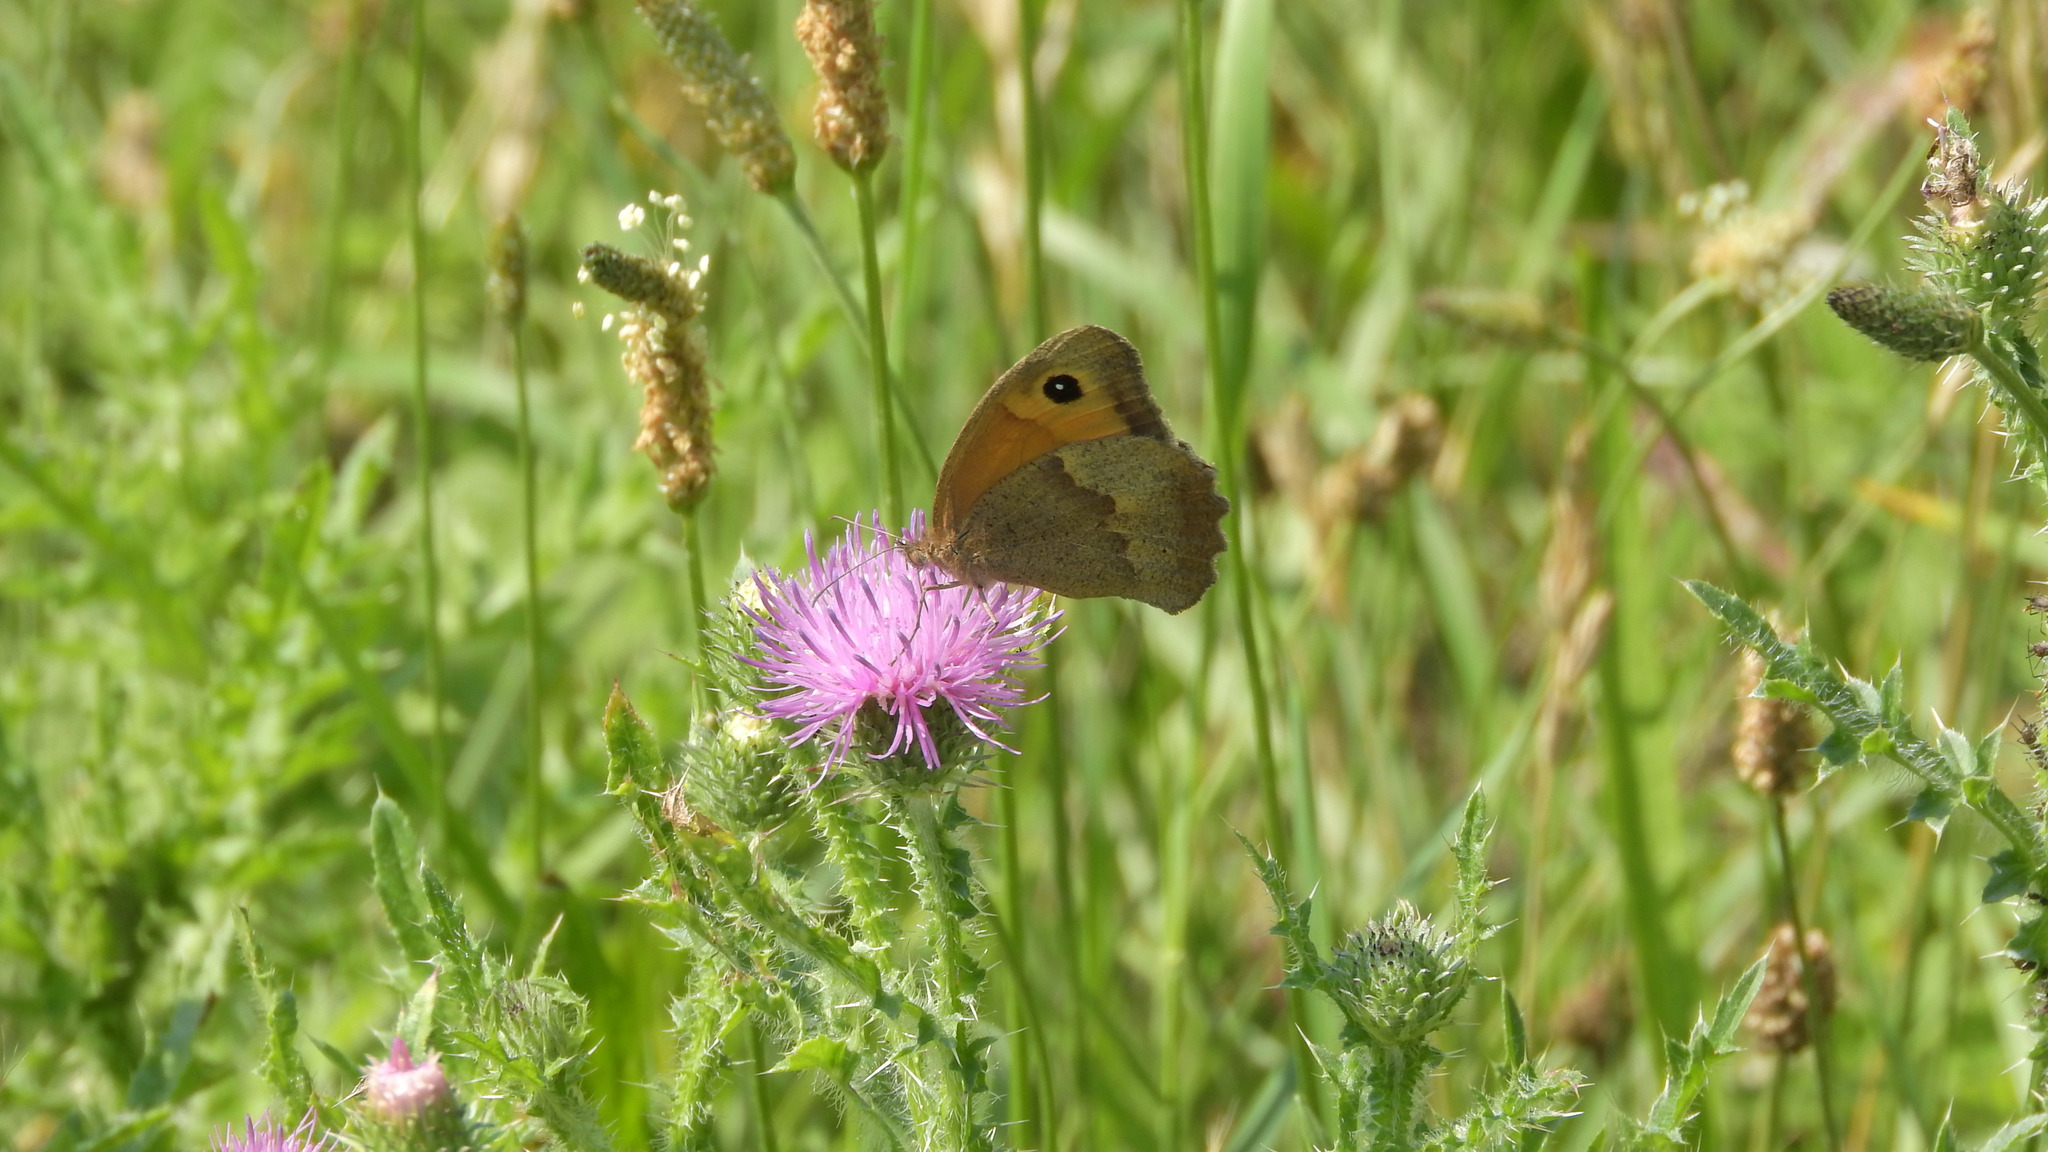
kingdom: Animalia
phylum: Arthropoda
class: Insecta
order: Lepidoptera
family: Nymphalidae
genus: Maniola
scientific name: Maniola jurtina
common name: Meadow brown
